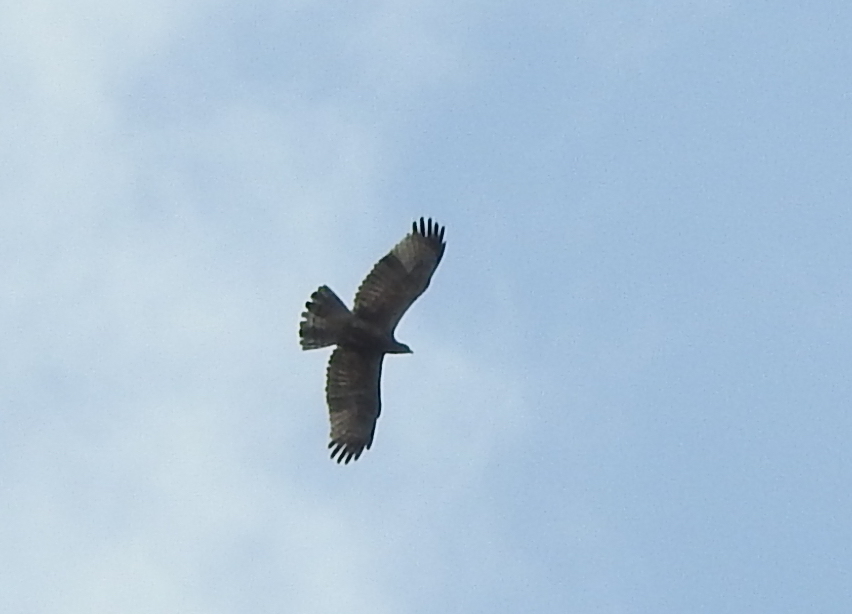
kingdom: Animalia
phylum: Chordata
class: Aves
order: Accipitriformes
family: Accipitridae
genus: Pernis
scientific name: Pernis ptilorhynchus
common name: Crested honey buzzard
